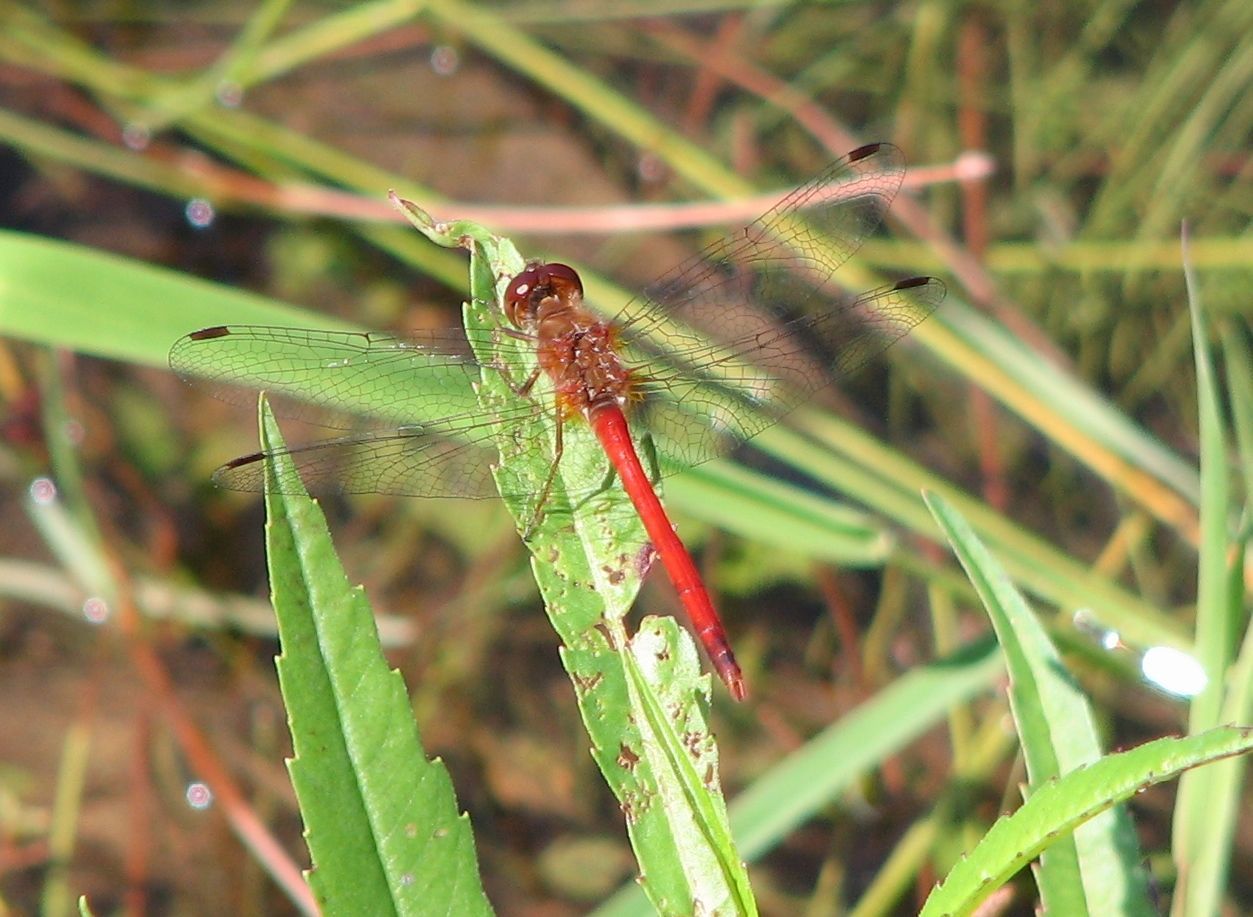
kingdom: Animalia
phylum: Arthropoda
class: Insecta
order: Odonata
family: Libellulidae
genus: Sympetrum
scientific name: Sympetrum vicinum
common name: Autumn meadowhawk
